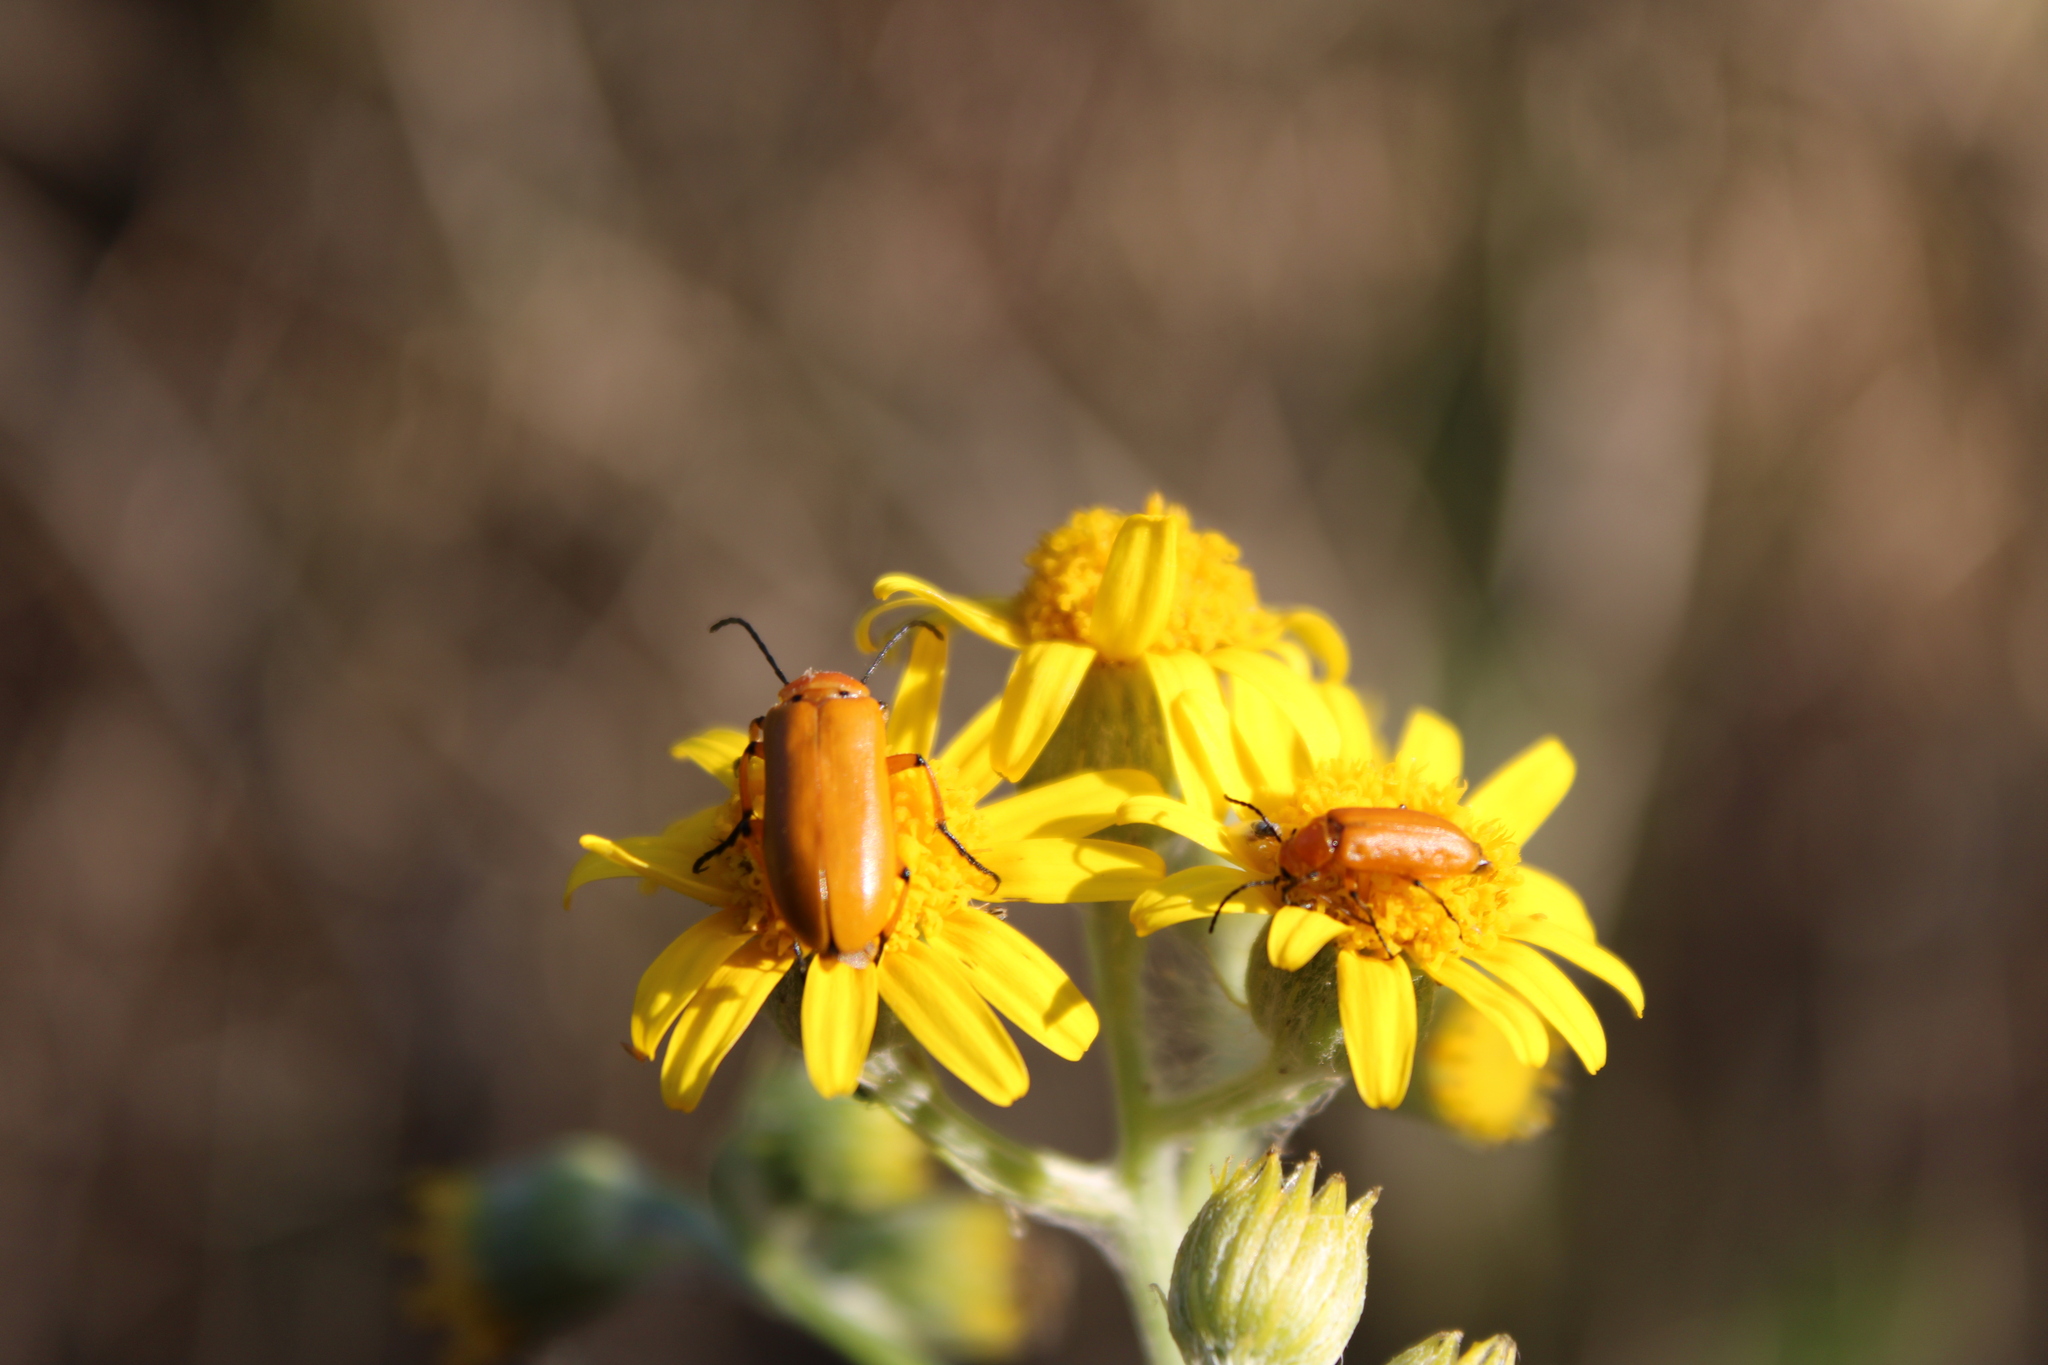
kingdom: Animalia
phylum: Arthropoda
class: Insecta
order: Coleoptera
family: Meloidae
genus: Nemognatha
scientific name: Nemognatha
